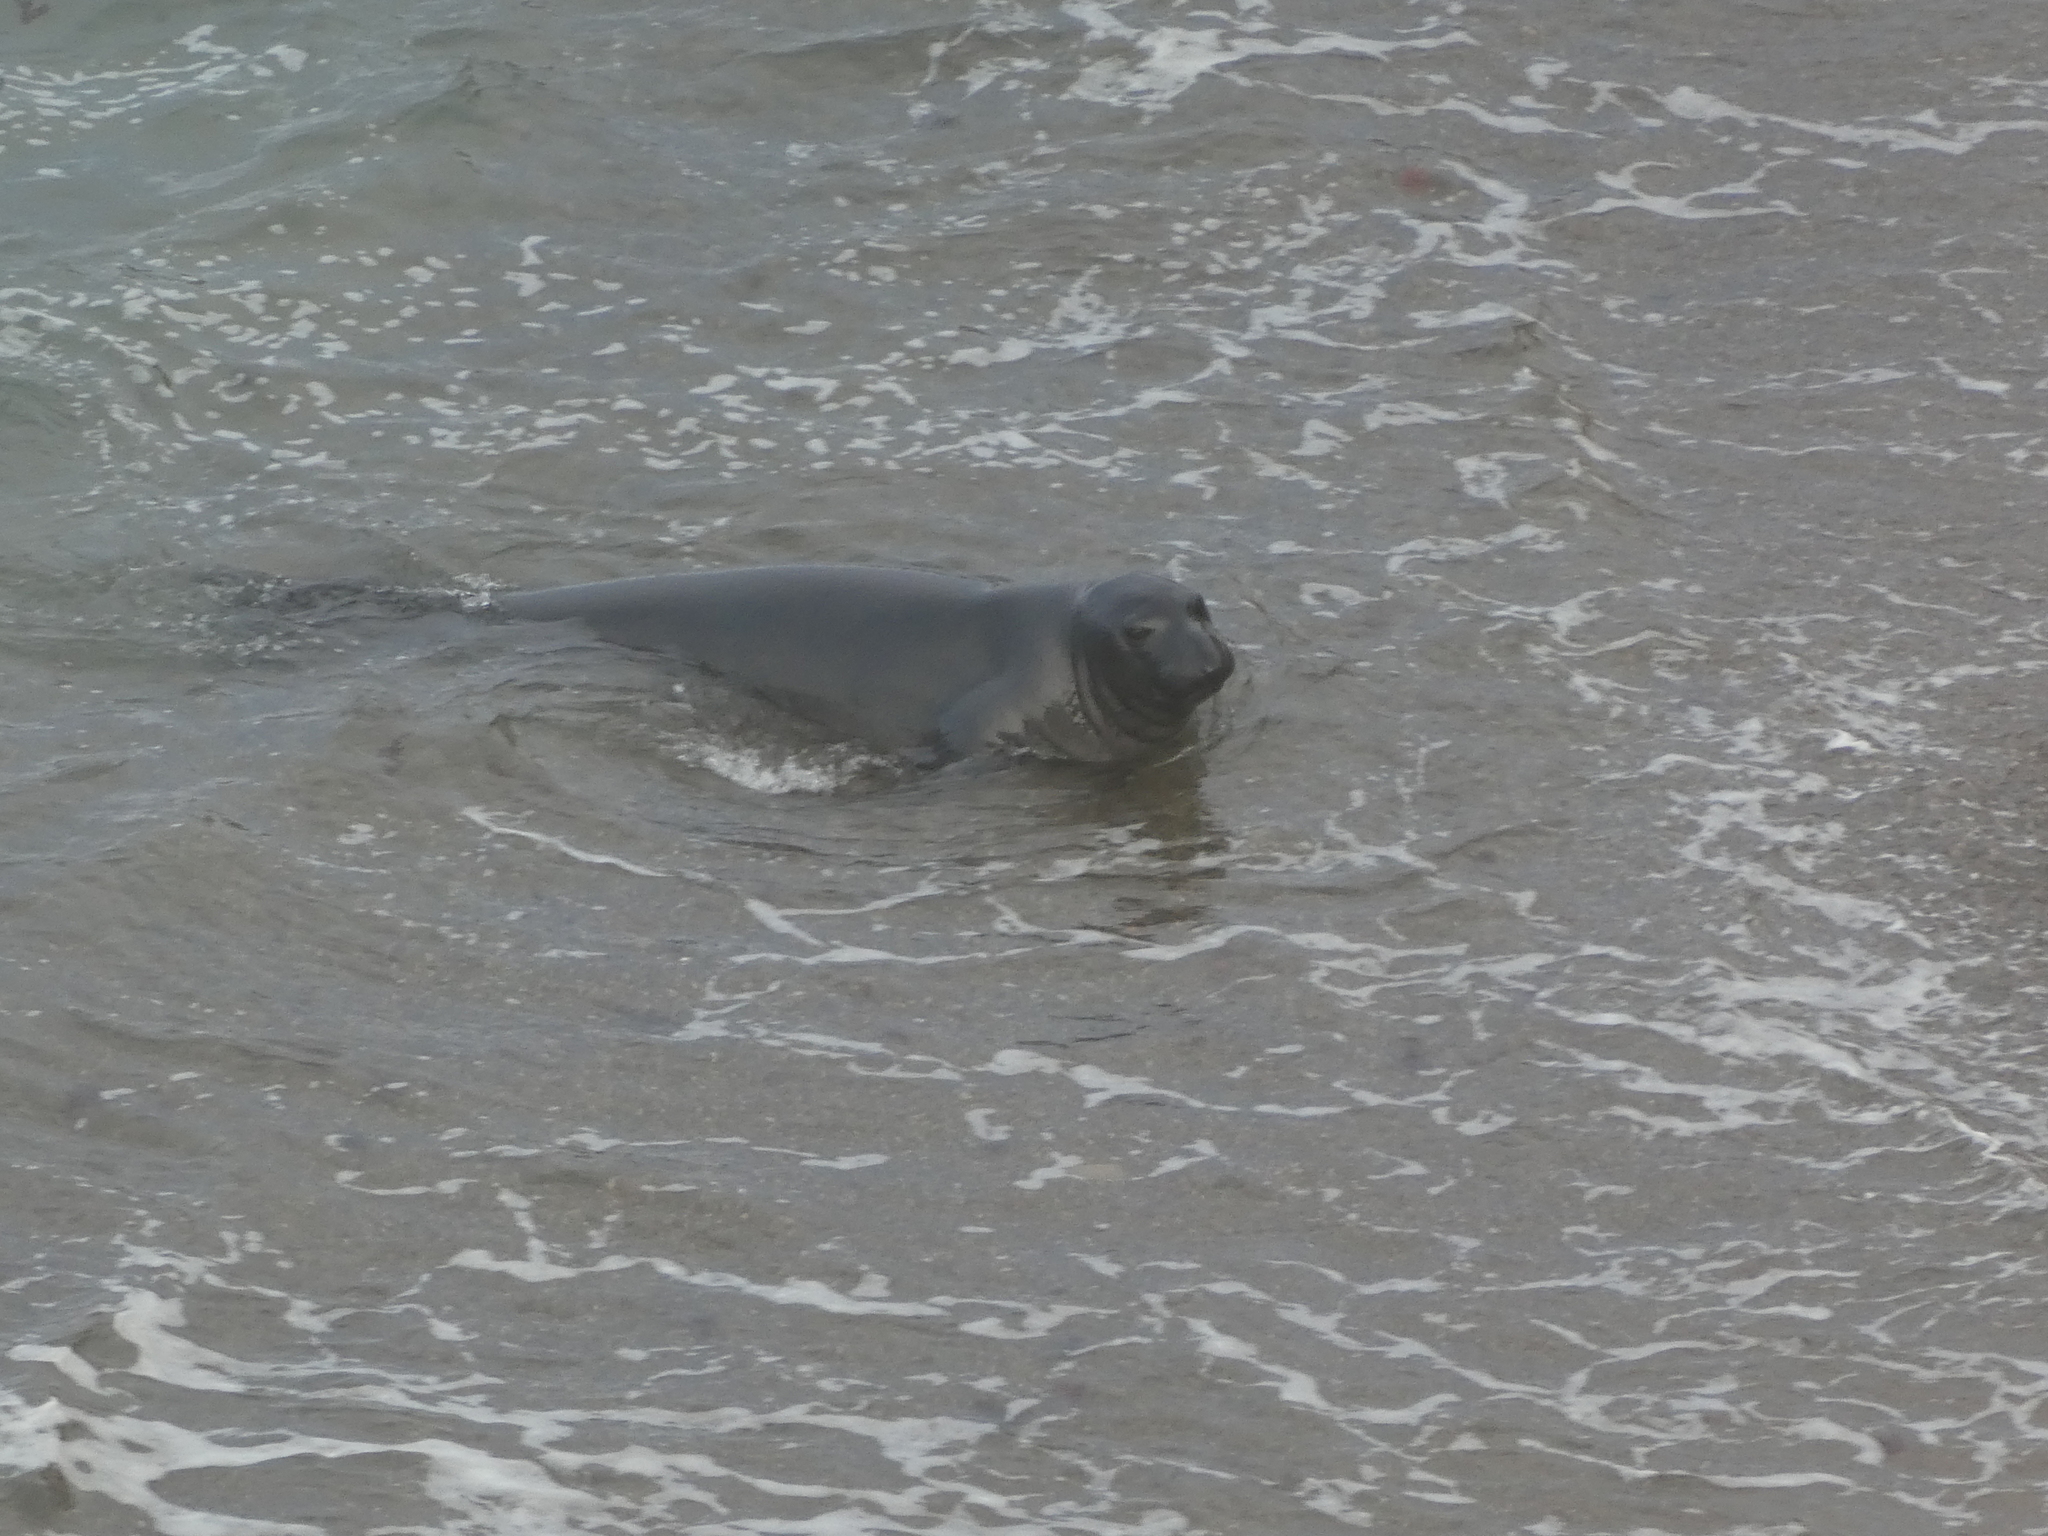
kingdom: Animalia
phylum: Chordata
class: Mammalia
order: Carnivora
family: Phocidae
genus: Mirounga
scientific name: Mirounga angustirostris
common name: Northern elephant seal
